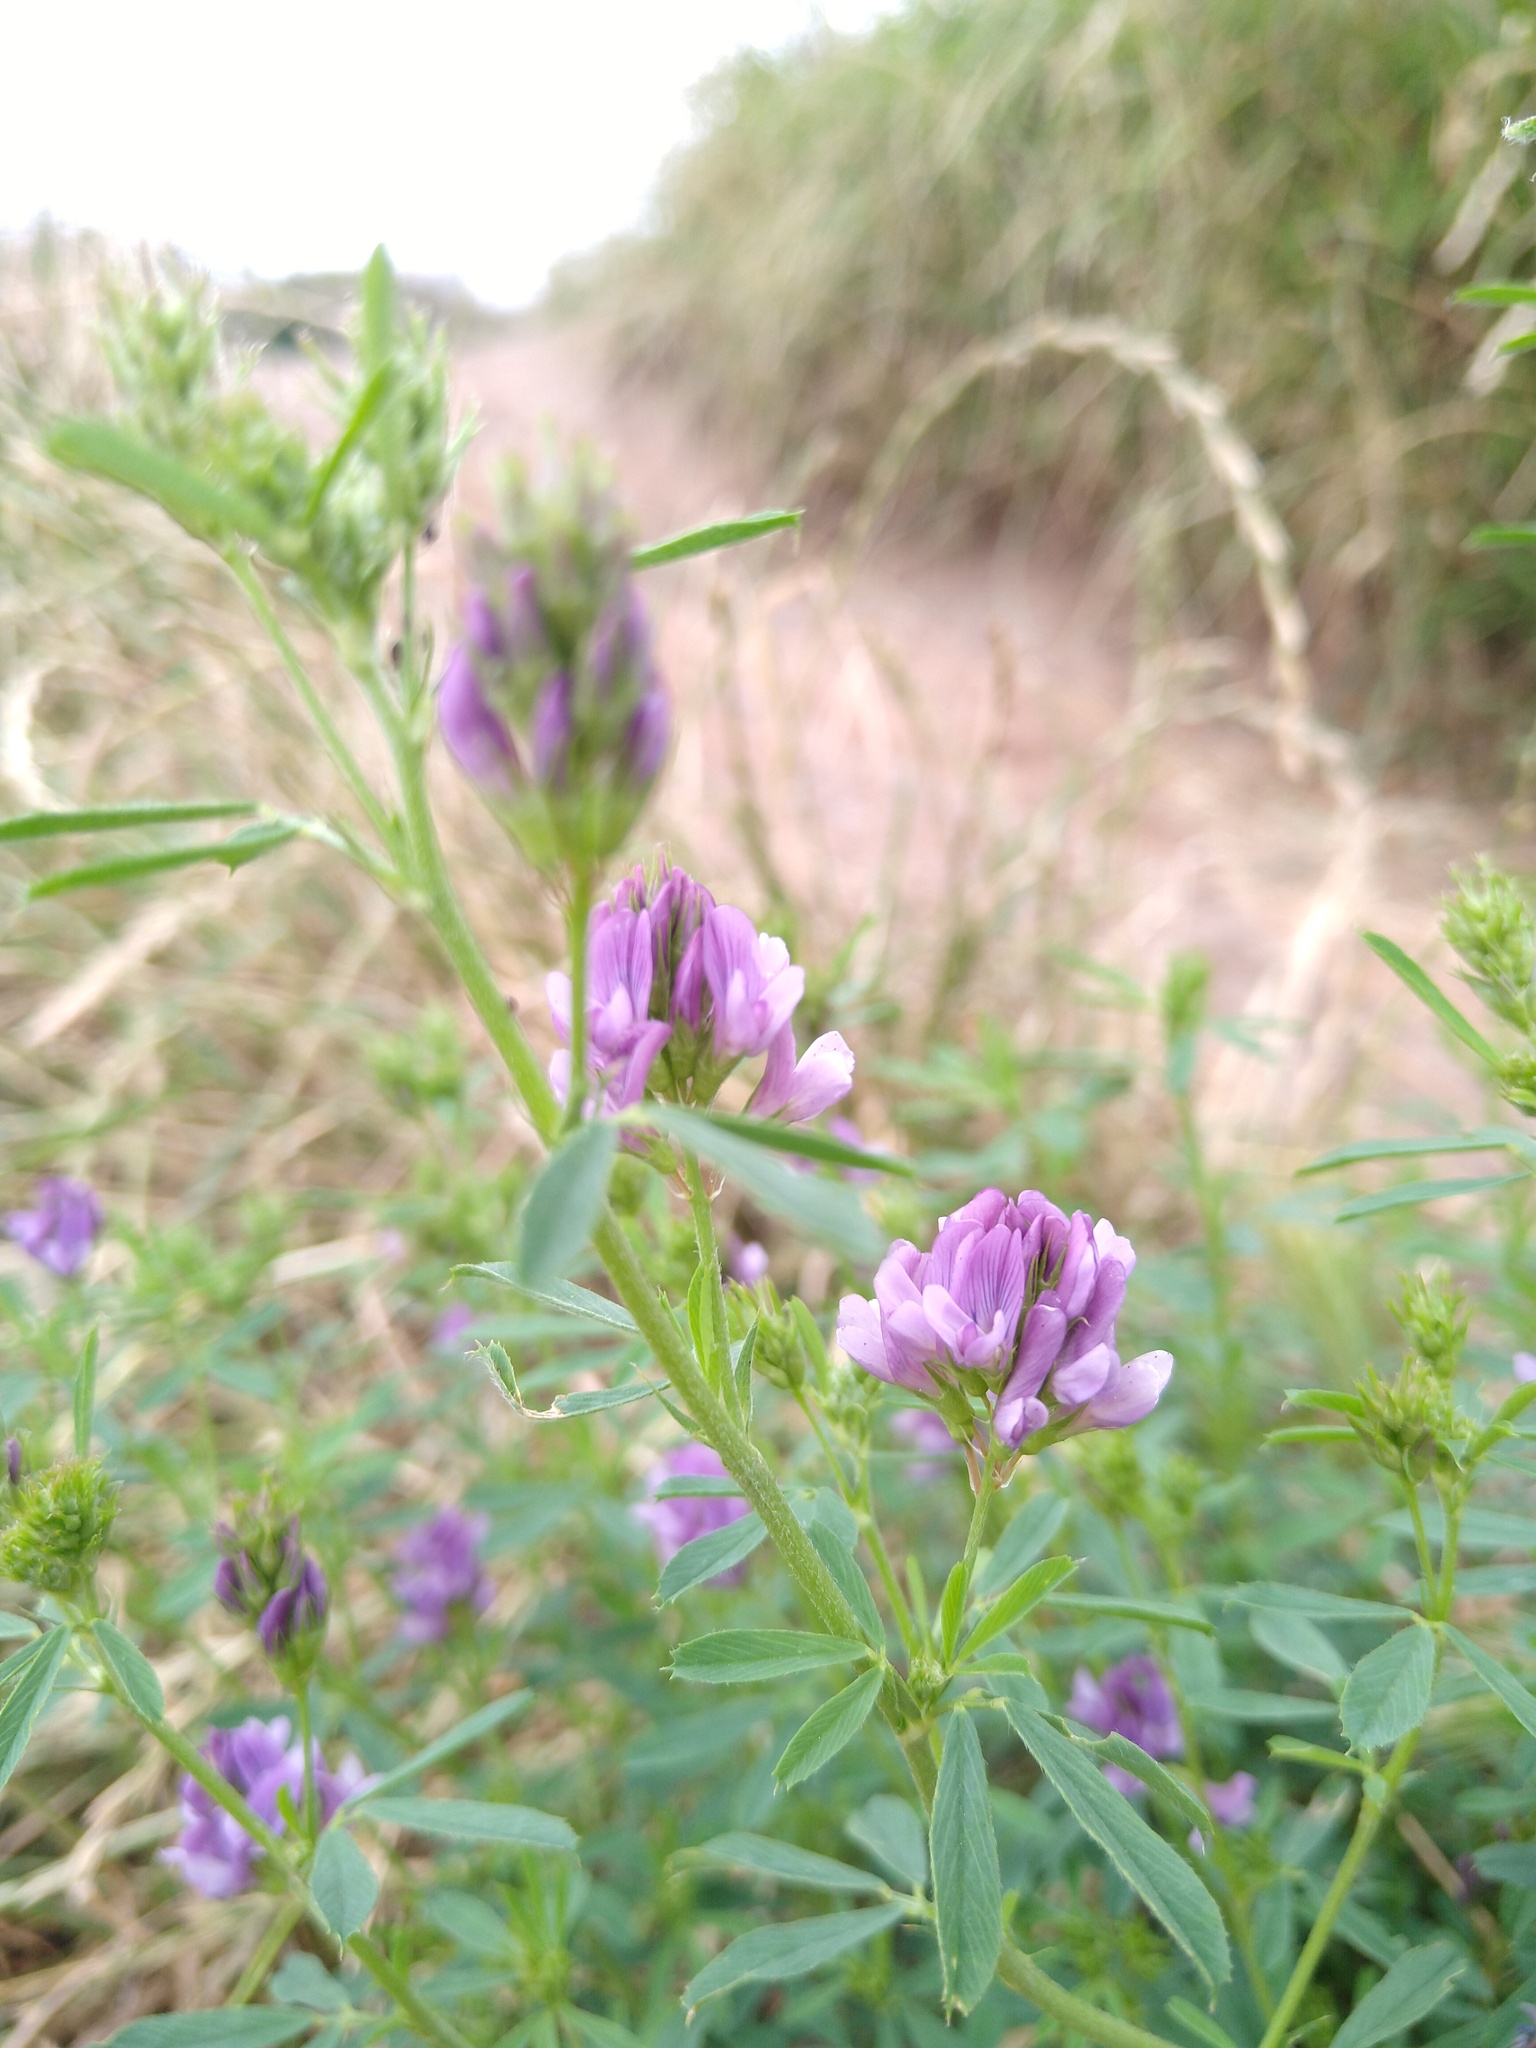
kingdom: Plantae
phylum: Tracheophyta
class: Magnoliopsida
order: Fabales
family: Fabaceae
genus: Medicago
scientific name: Medicago sativa
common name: Alfalfa
